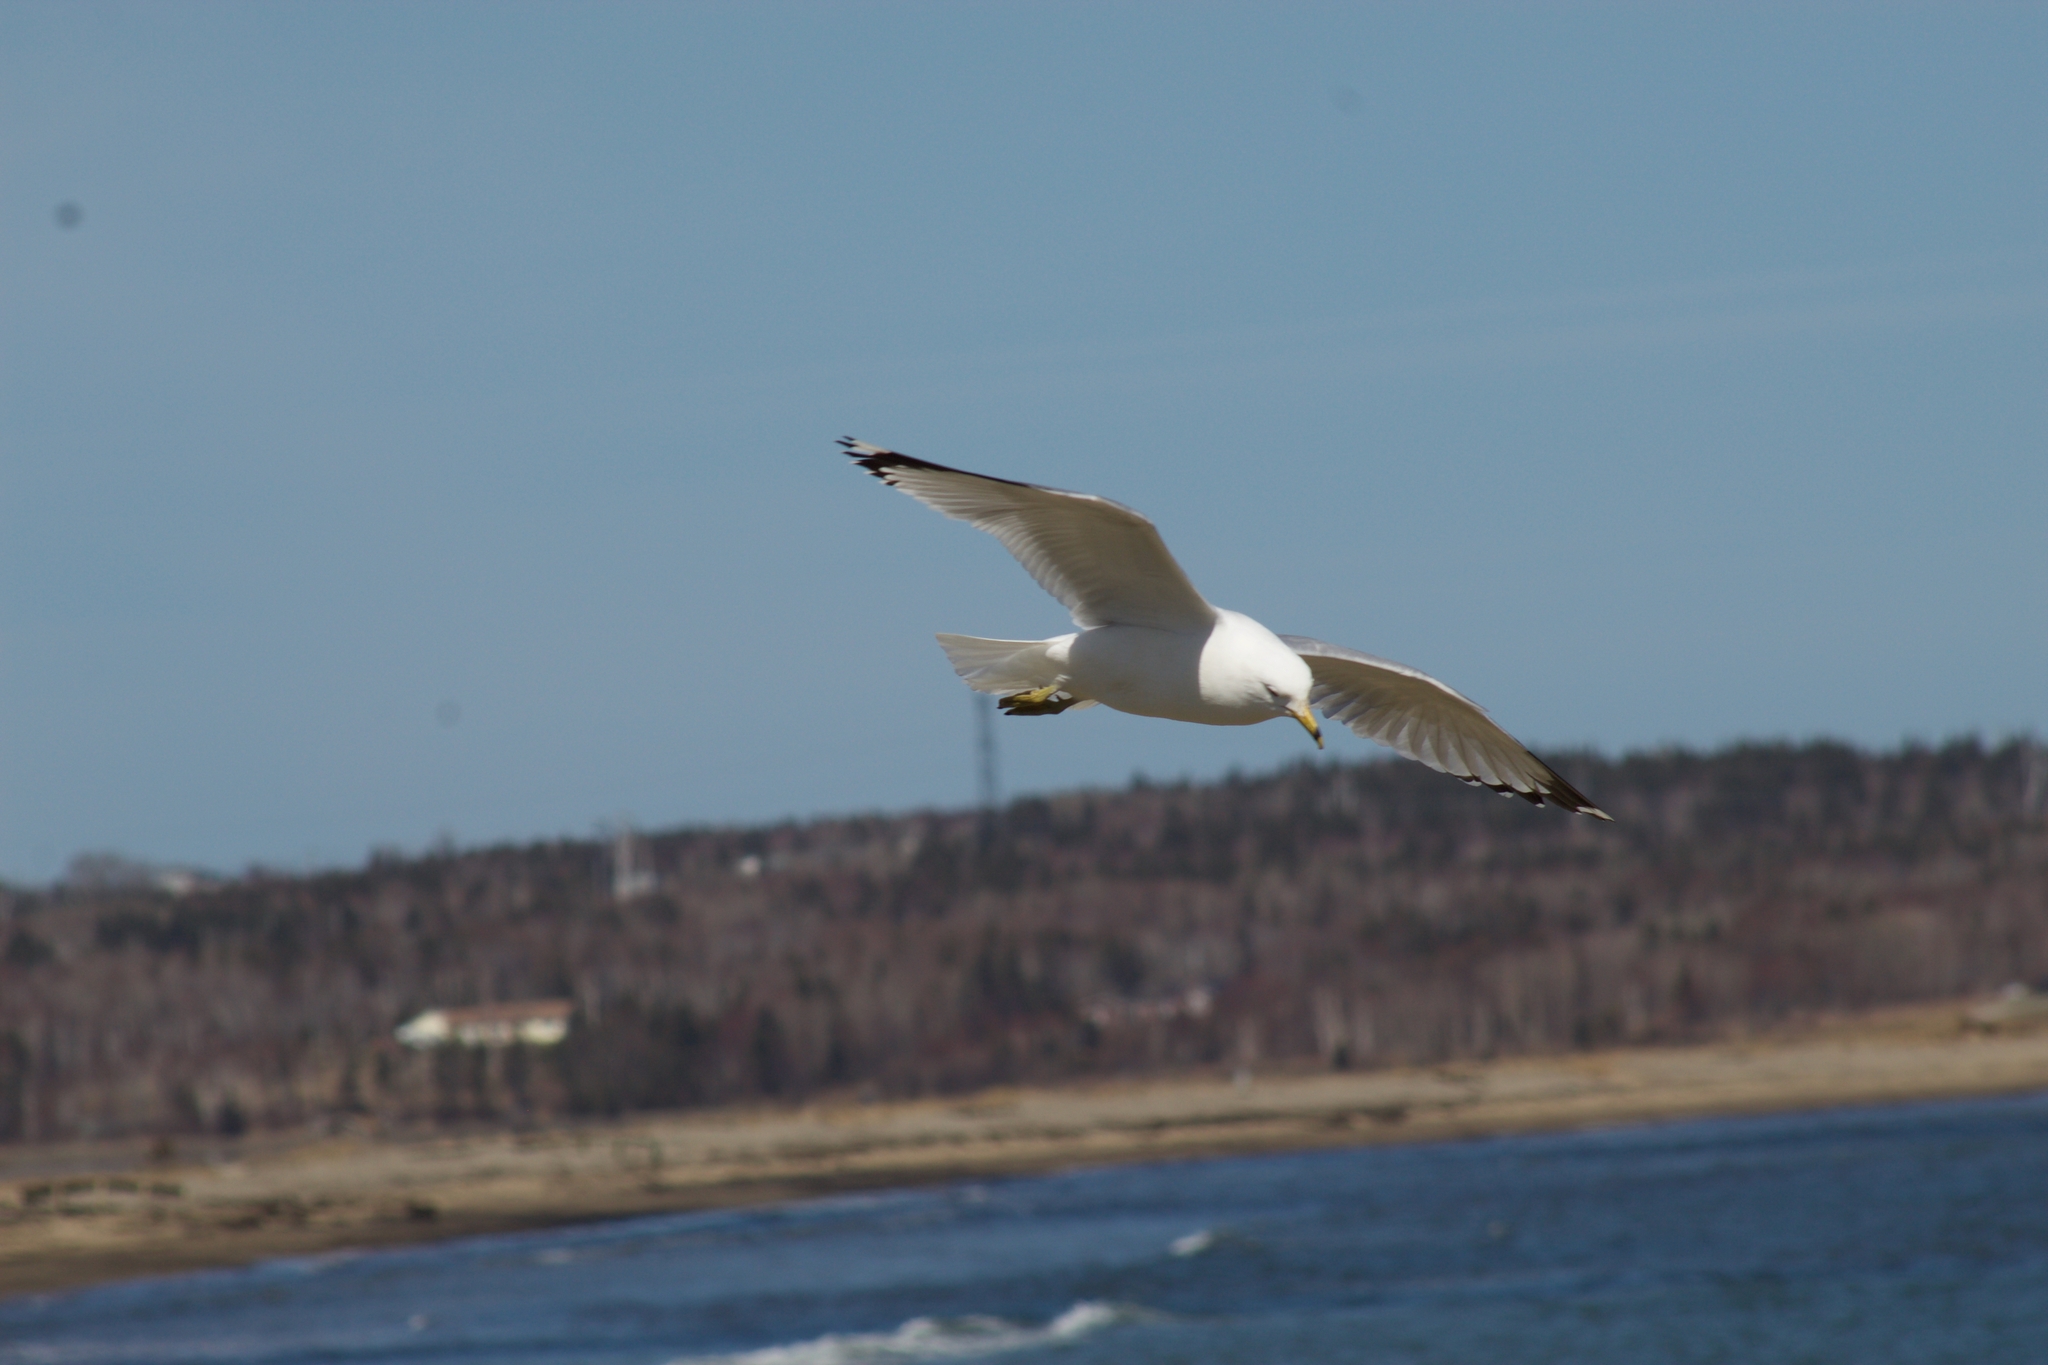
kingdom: Animalia
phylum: Chordata
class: Aves
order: Charadriiformes
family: Laridae
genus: Larus
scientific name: Larus delawarensis
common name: Ring-billed gull
